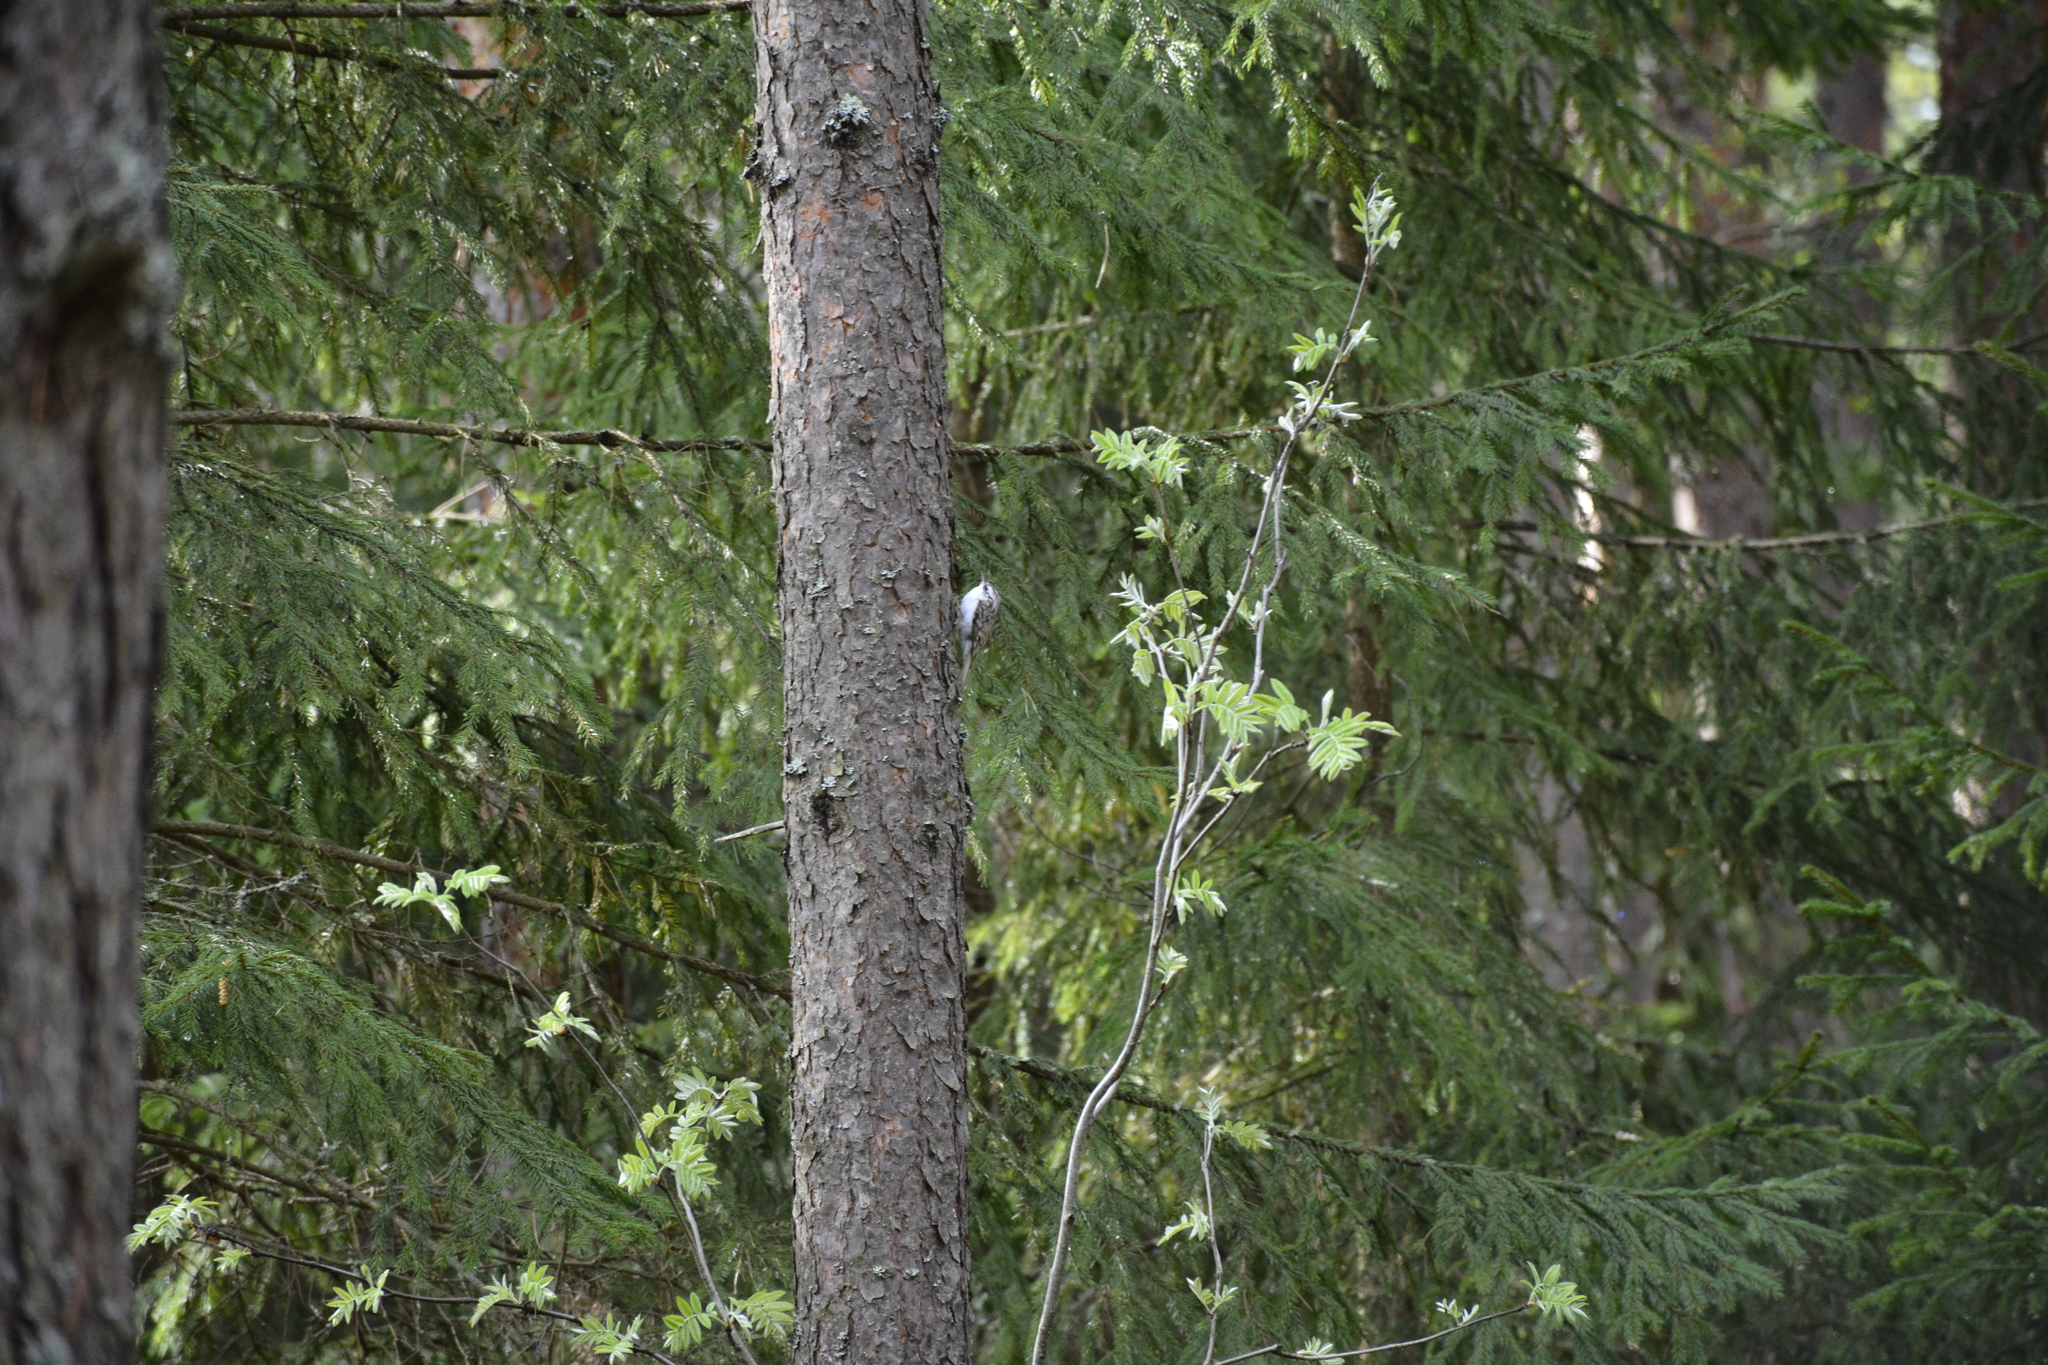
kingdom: Animalia
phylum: Chordata
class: Aves
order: Passeriformes
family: Certhiidae
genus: Certhia
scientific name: Certhia familiaris
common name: Eurasian treecreeper
